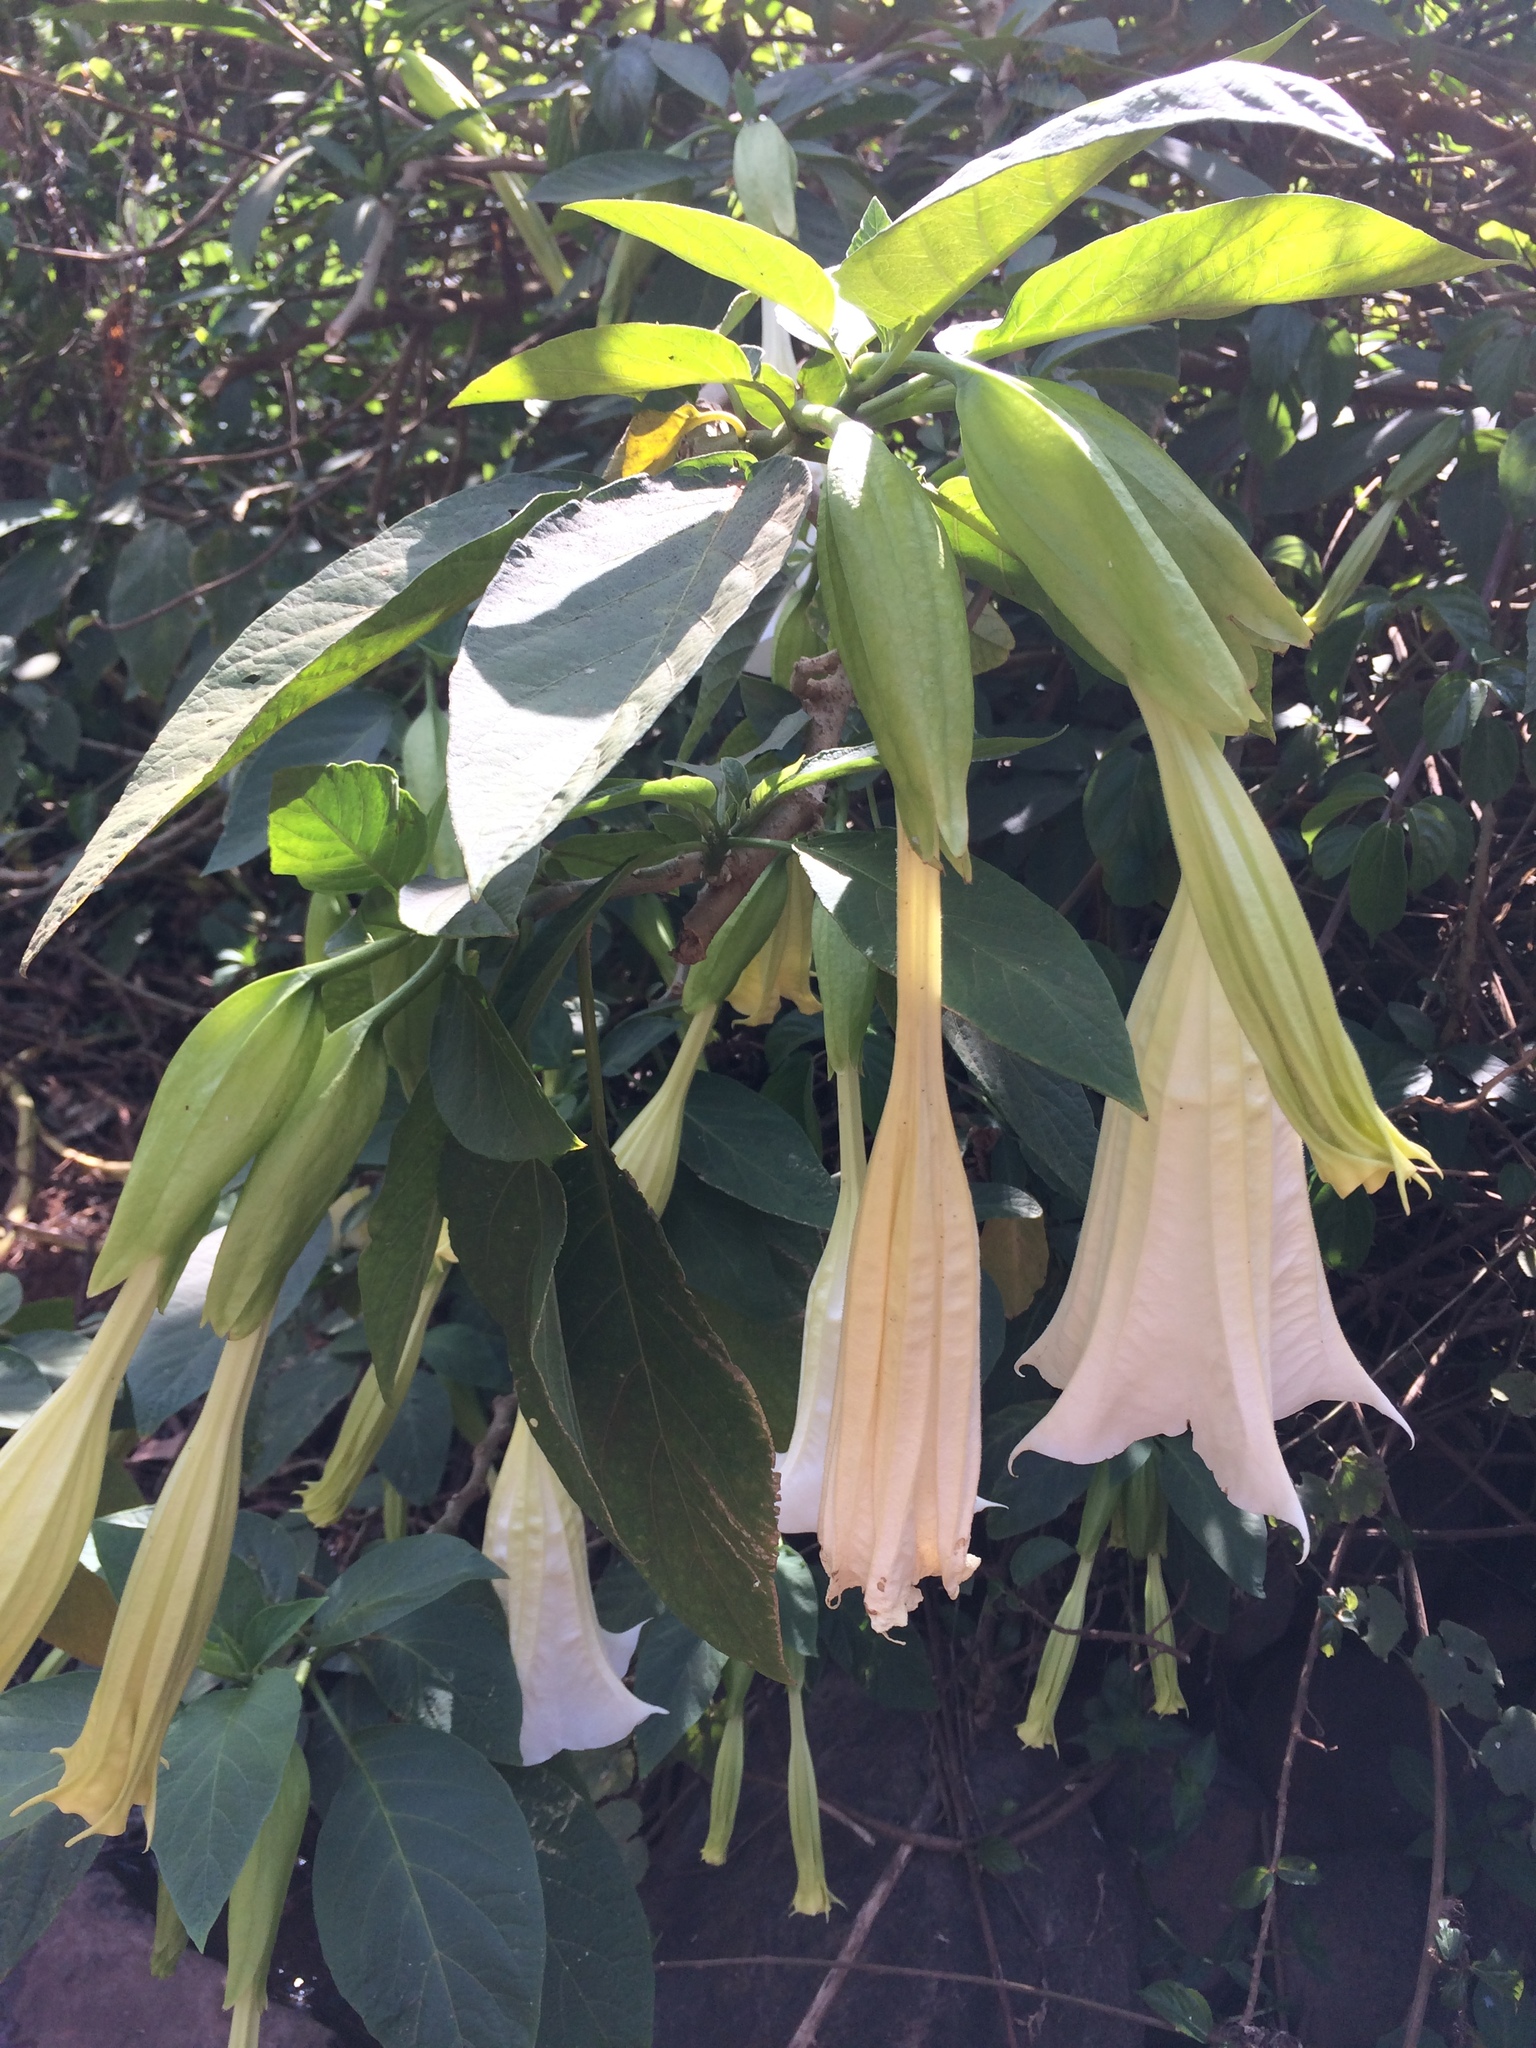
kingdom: Plantae
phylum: Tracheophyta
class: Magnoliopsida
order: Solanales
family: Solanaceae
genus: Brugmansia
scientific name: Brugmansia suaveolens
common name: Angel's tears
